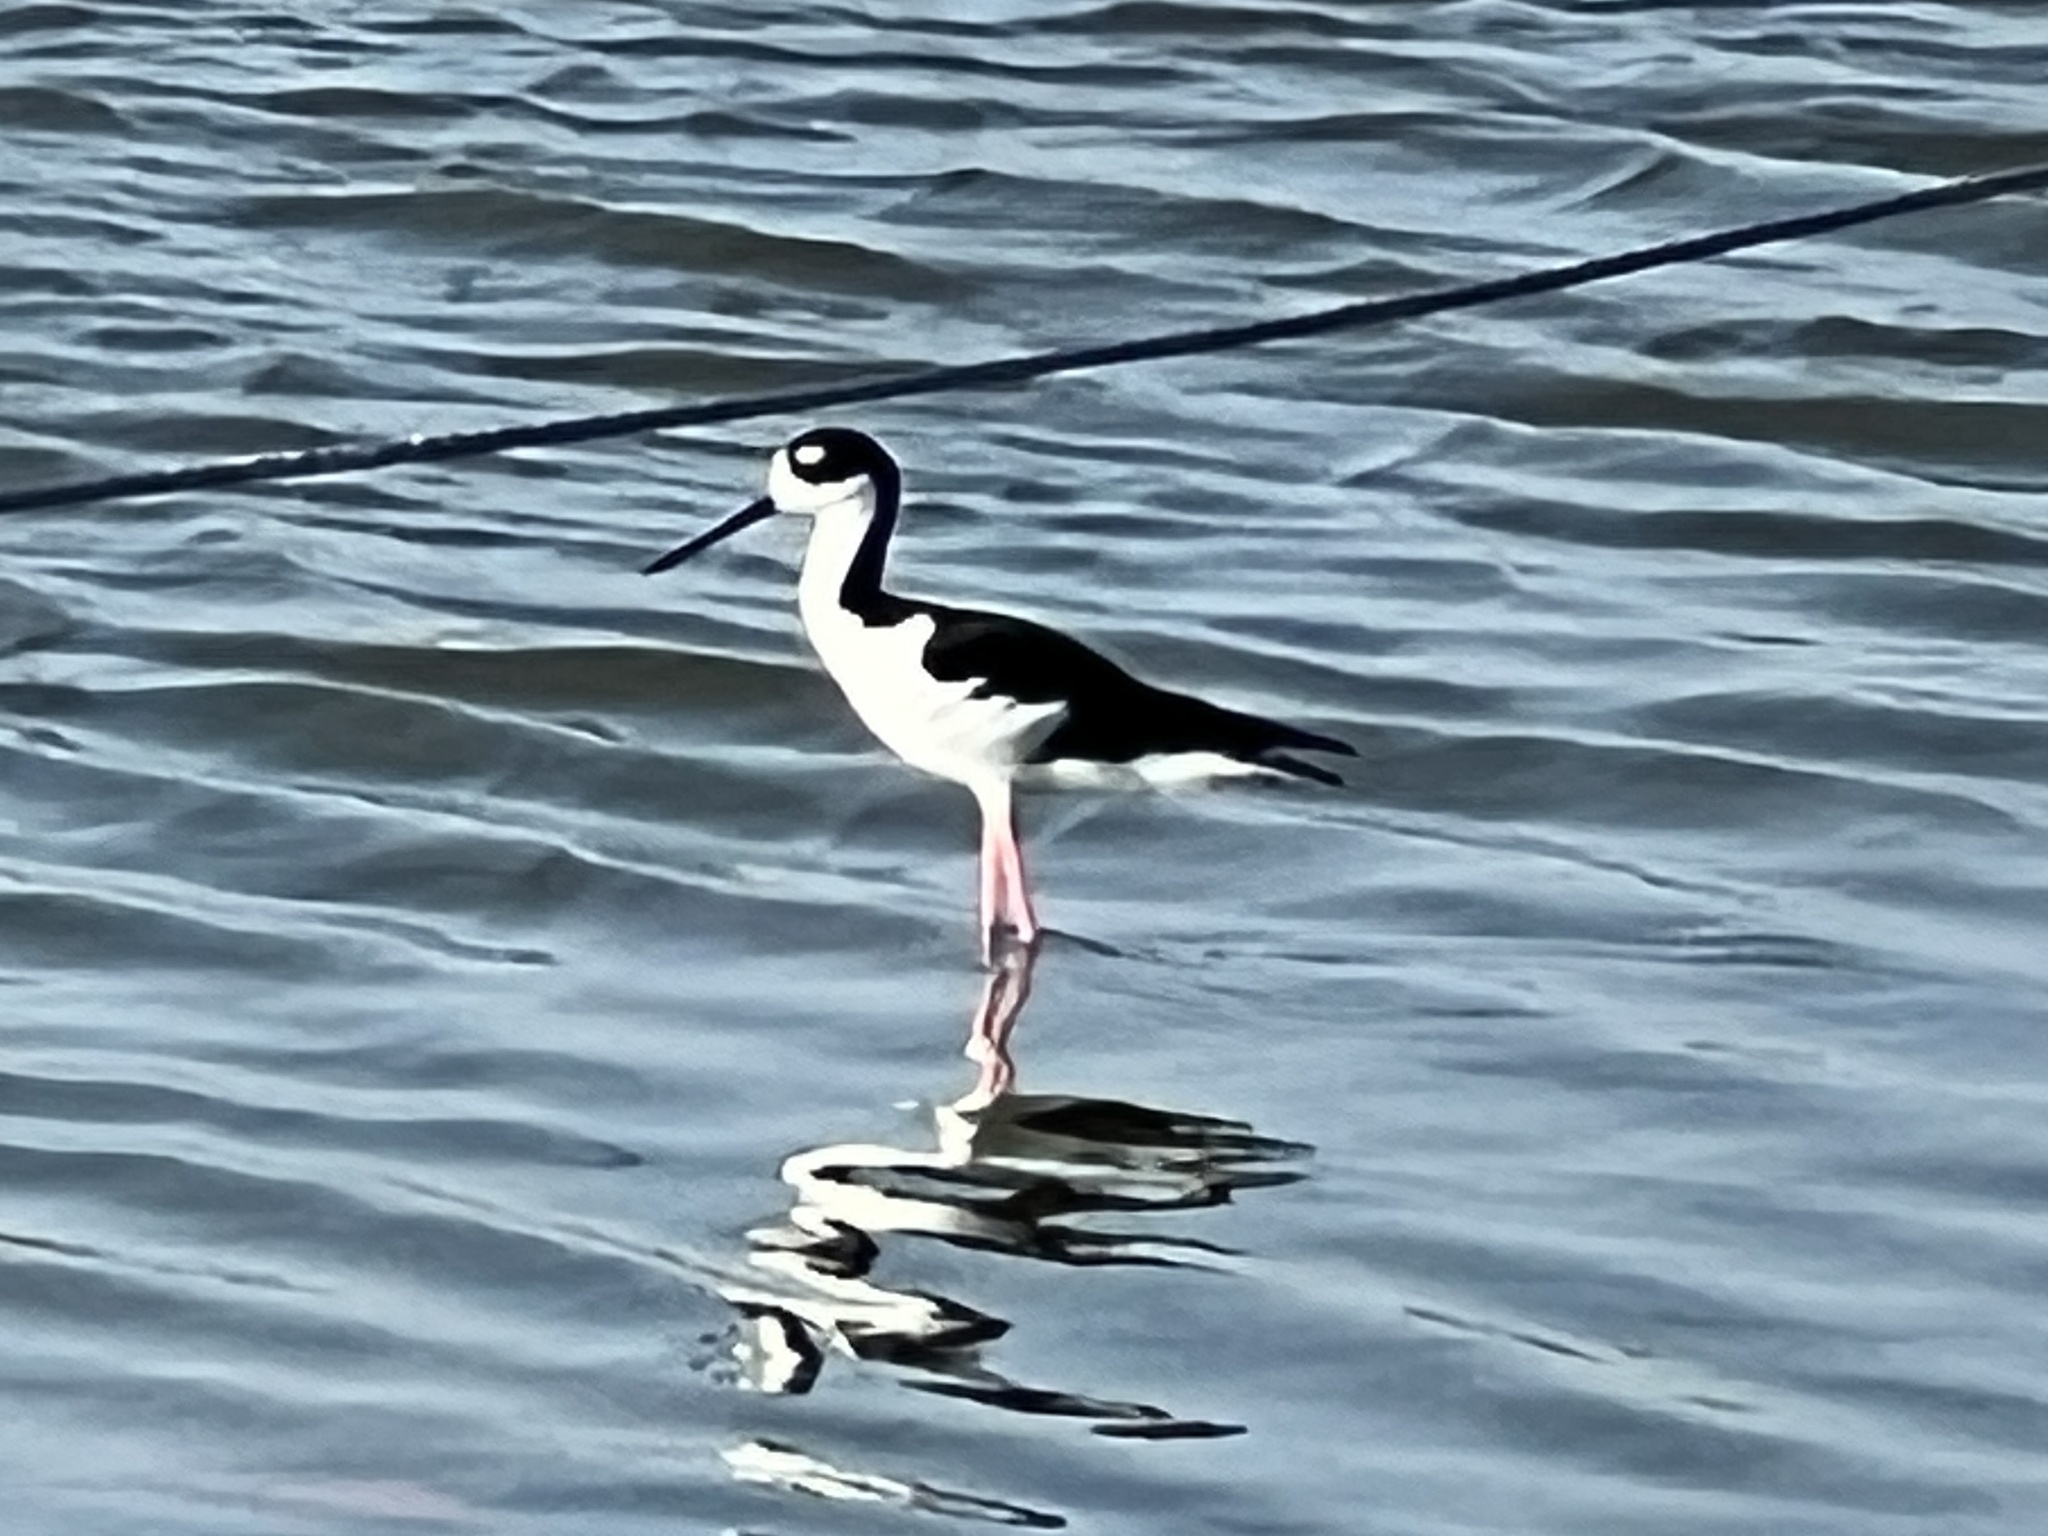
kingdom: Animalia
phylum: Chordata
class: Aves
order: Charadriiformes
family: Recurvirostridae
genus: Himantopus
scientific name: Himantopus mexicanus
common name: Black-necked stilt
